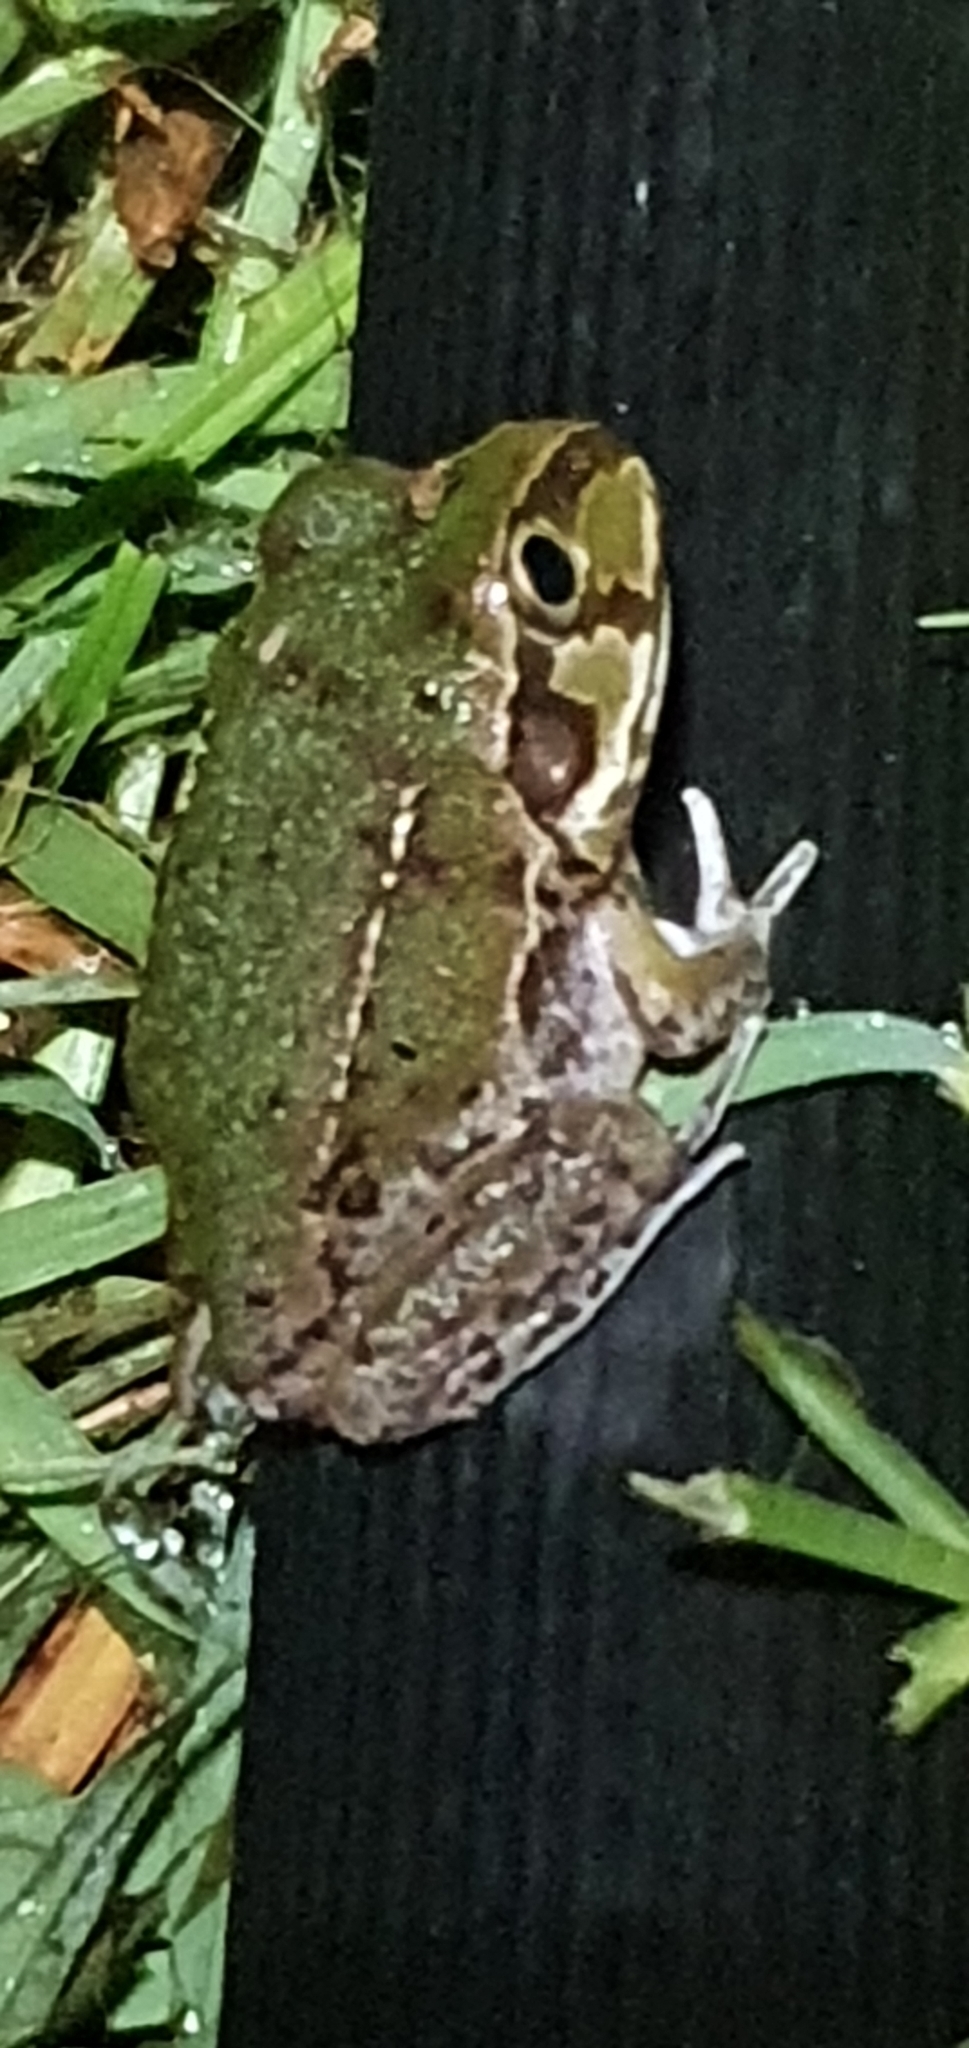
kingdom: Animalia
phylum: Chordata
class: Amphibia
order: Anura
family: Pelodryadidae
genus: Ranoidea
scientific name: Ranoidea novaehollandiae
